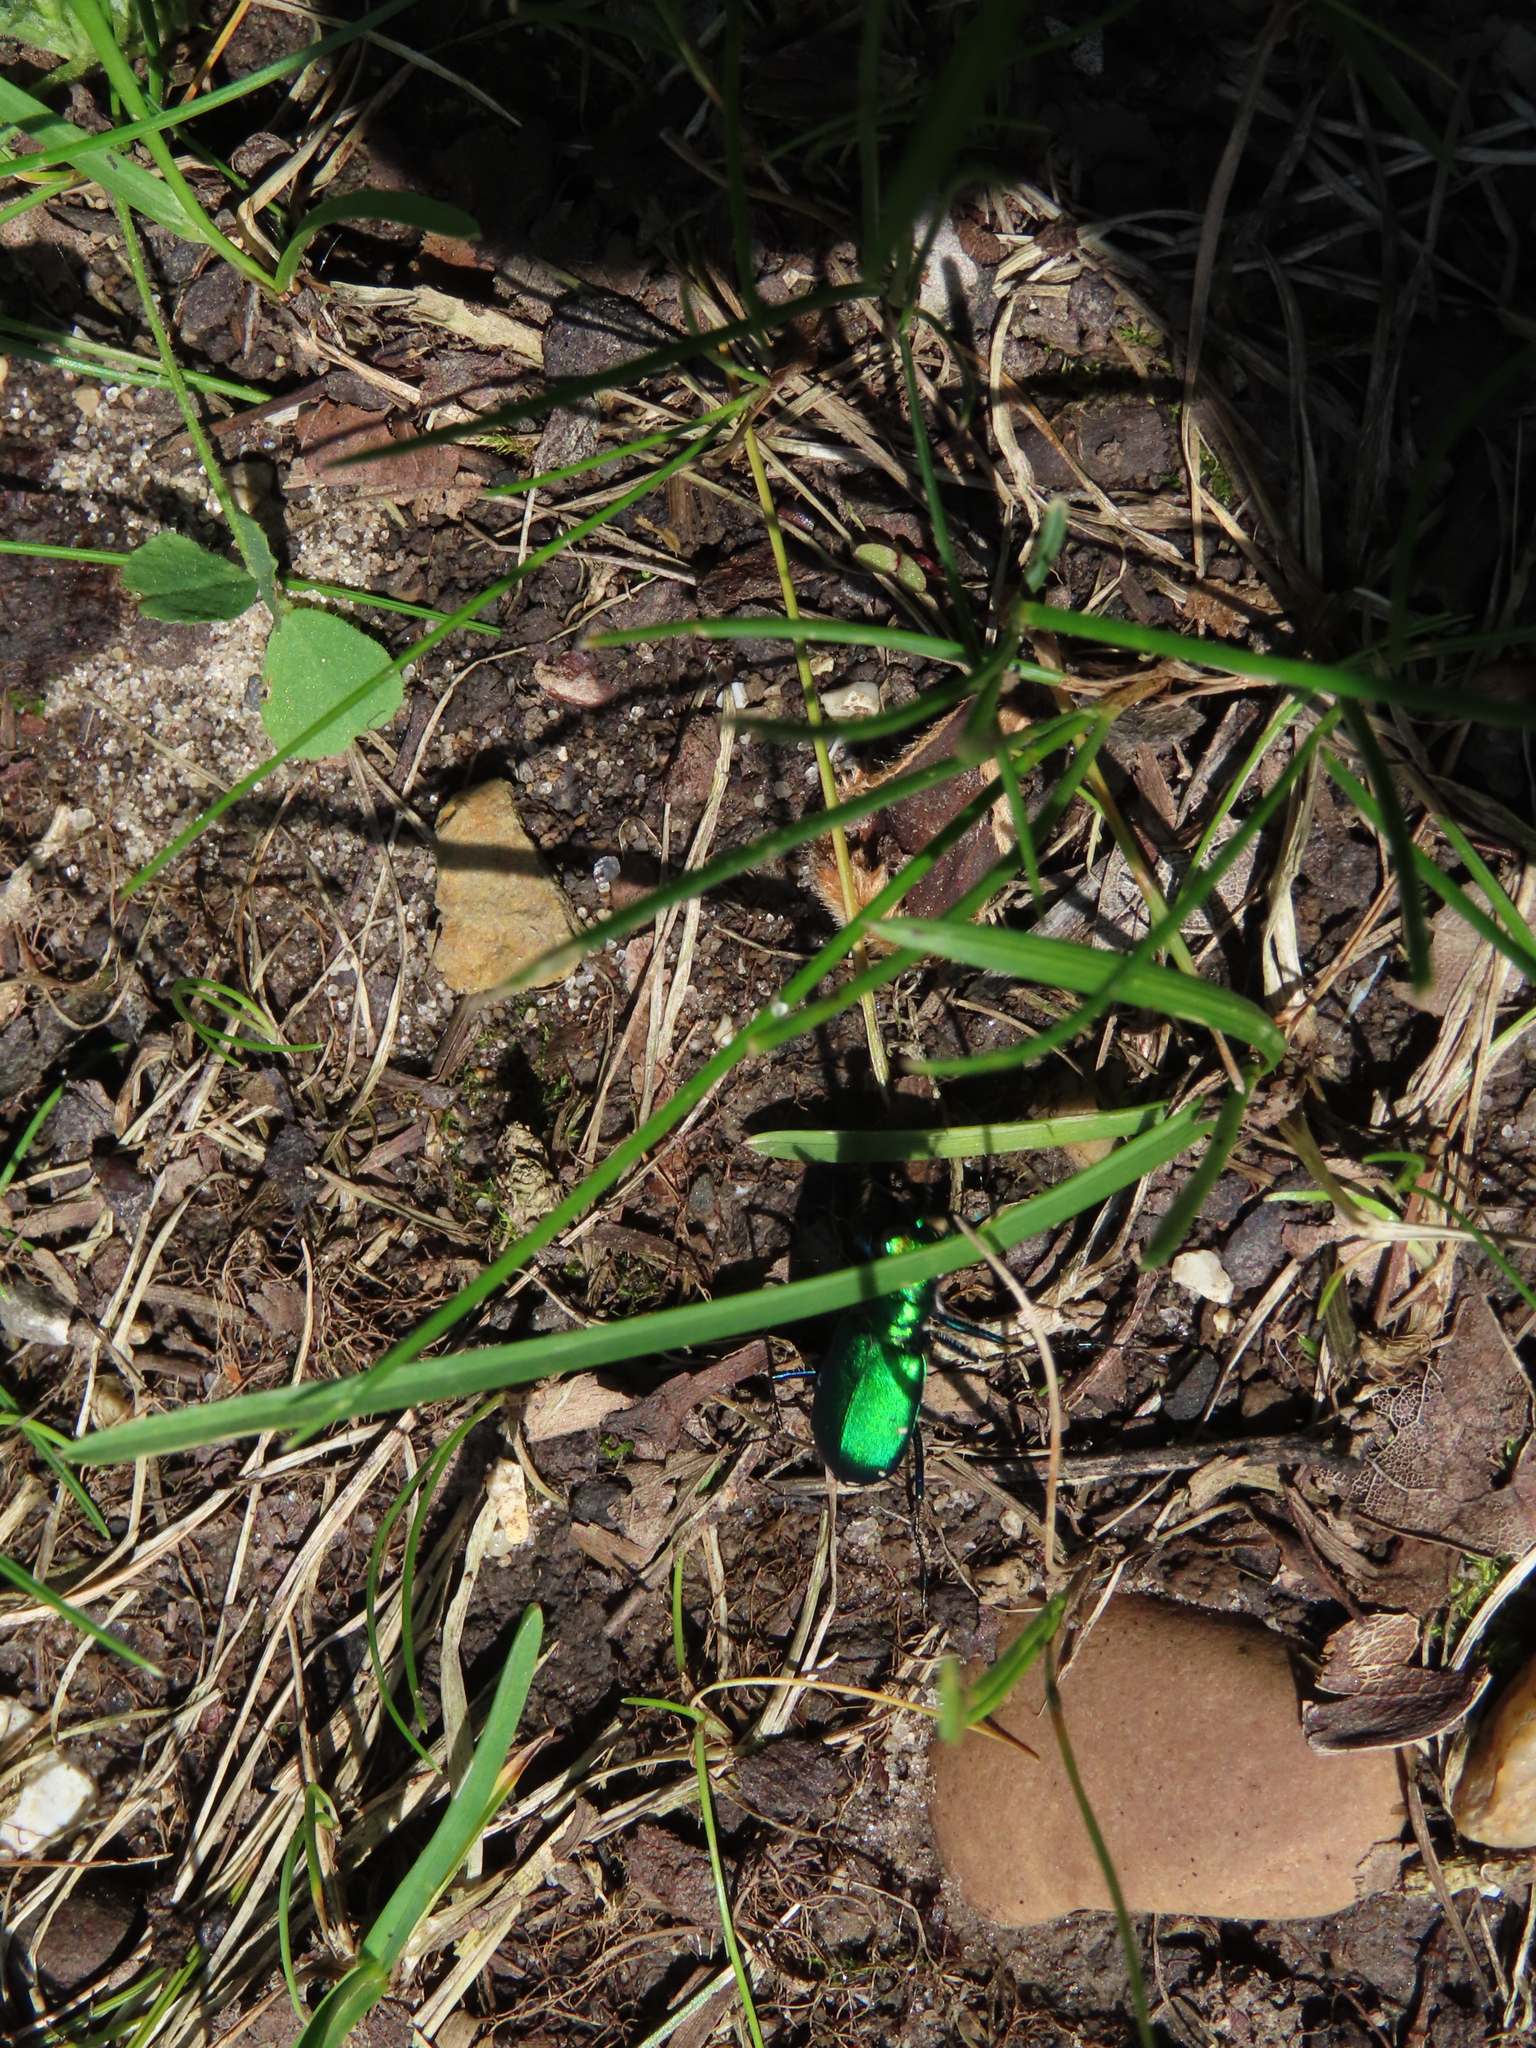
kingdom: Animalia
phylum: Arthropoda
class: Insecta
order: Coleoptera
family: Carabidae
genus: Cicindela
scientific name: Cicindela sexguttata
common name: Six-spotted tiger beetle
